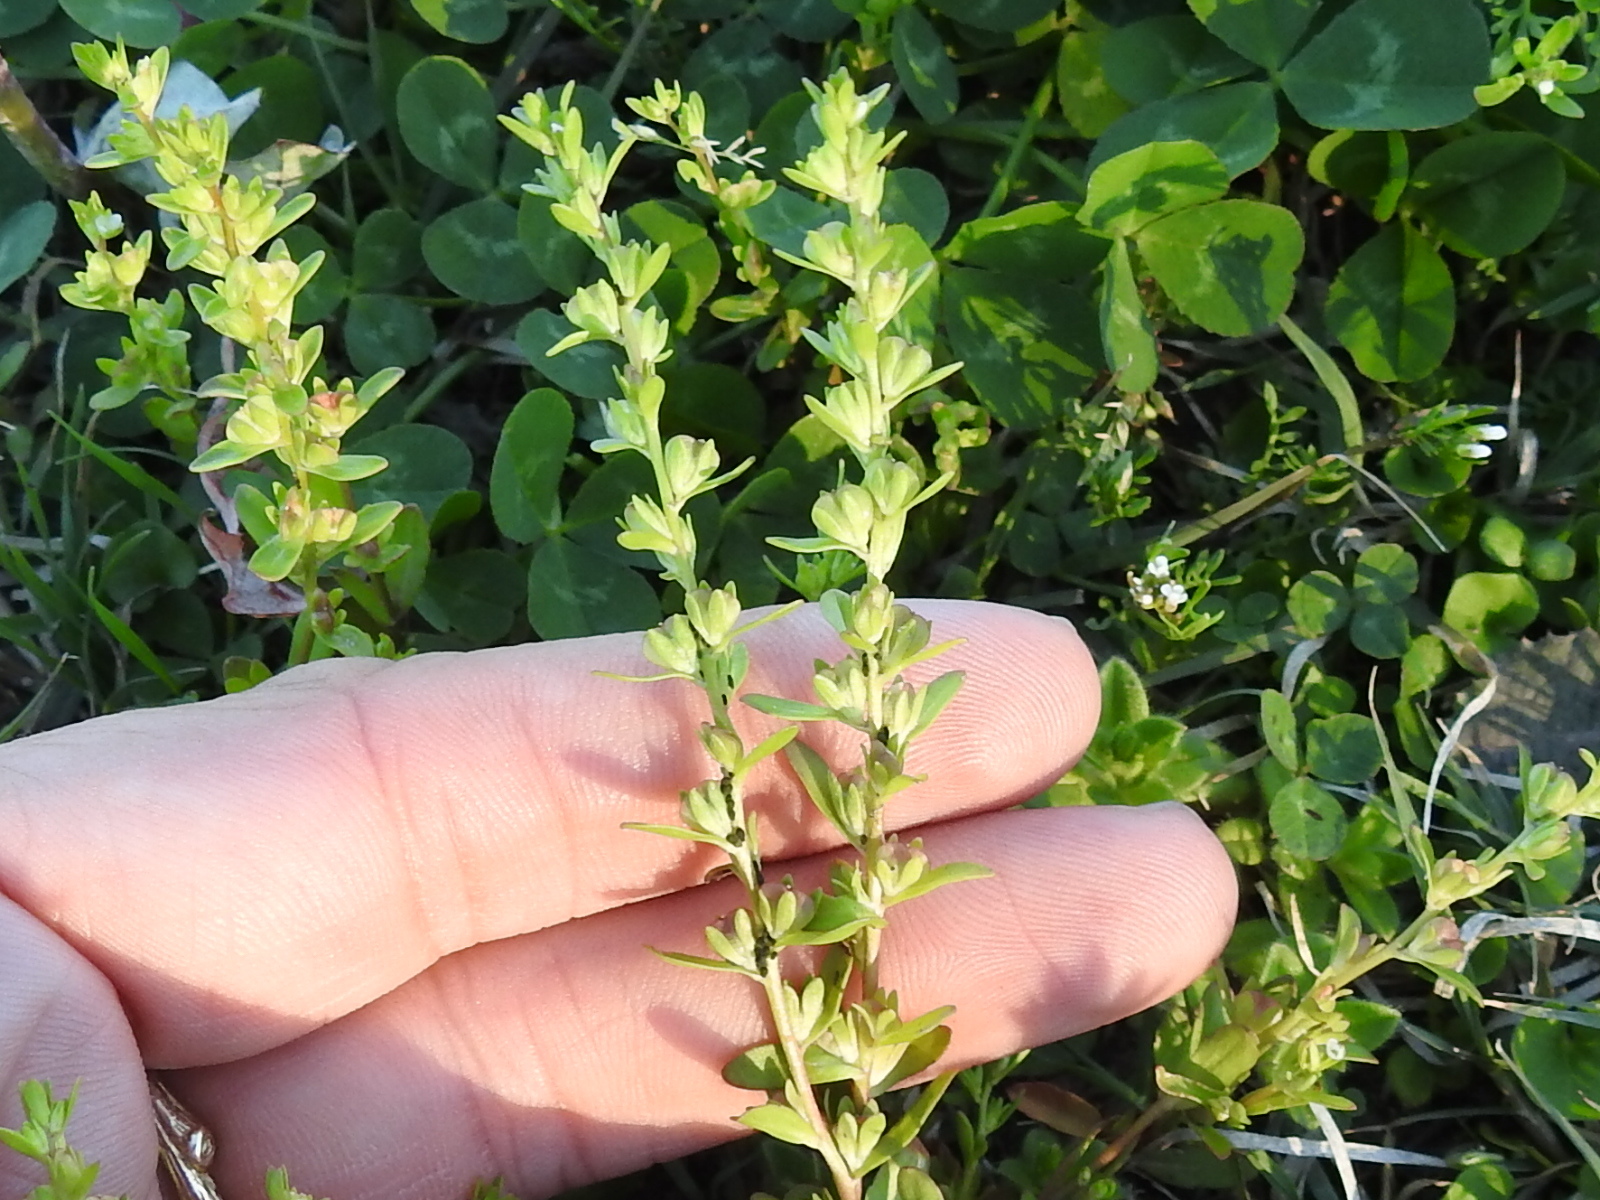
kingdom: Plantae
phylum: Tracheophyta
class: Magnoliopsida
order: Lamiales
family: Plantaginaceae
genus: Veronica
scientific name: Veronica peregrina
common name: Neckweed
